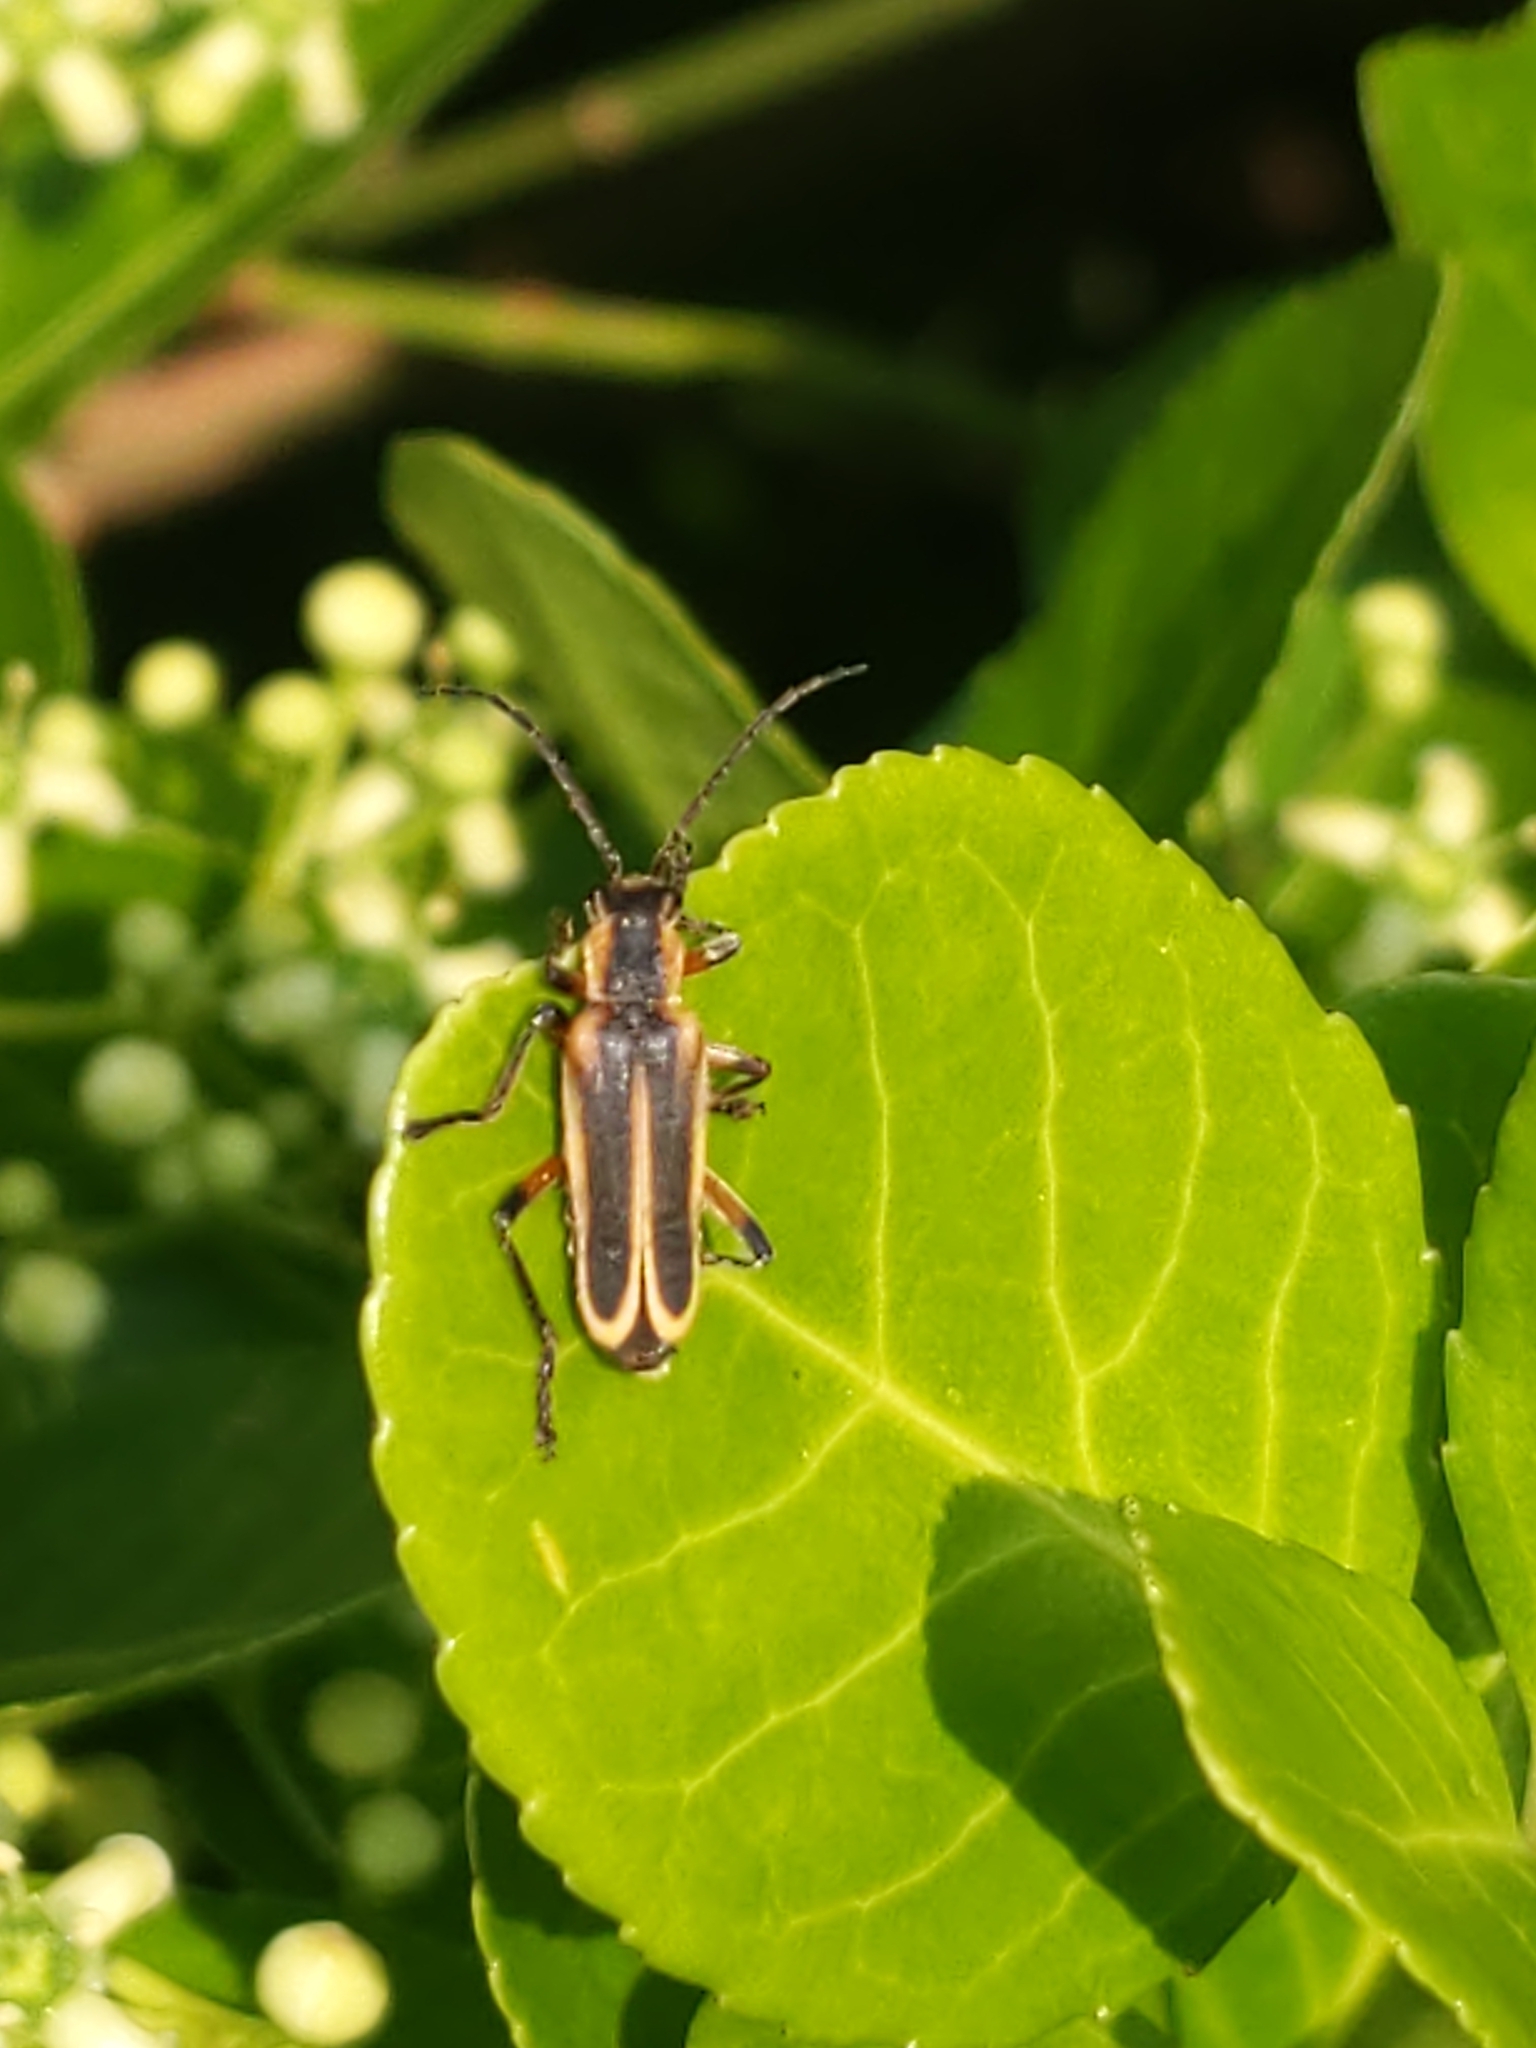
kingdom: Animalia
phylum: Arthropoda
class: Insecta
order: Coleoptera
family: Cantharidae
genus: Chauliognathus
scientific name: Chauliognathus marginatus
